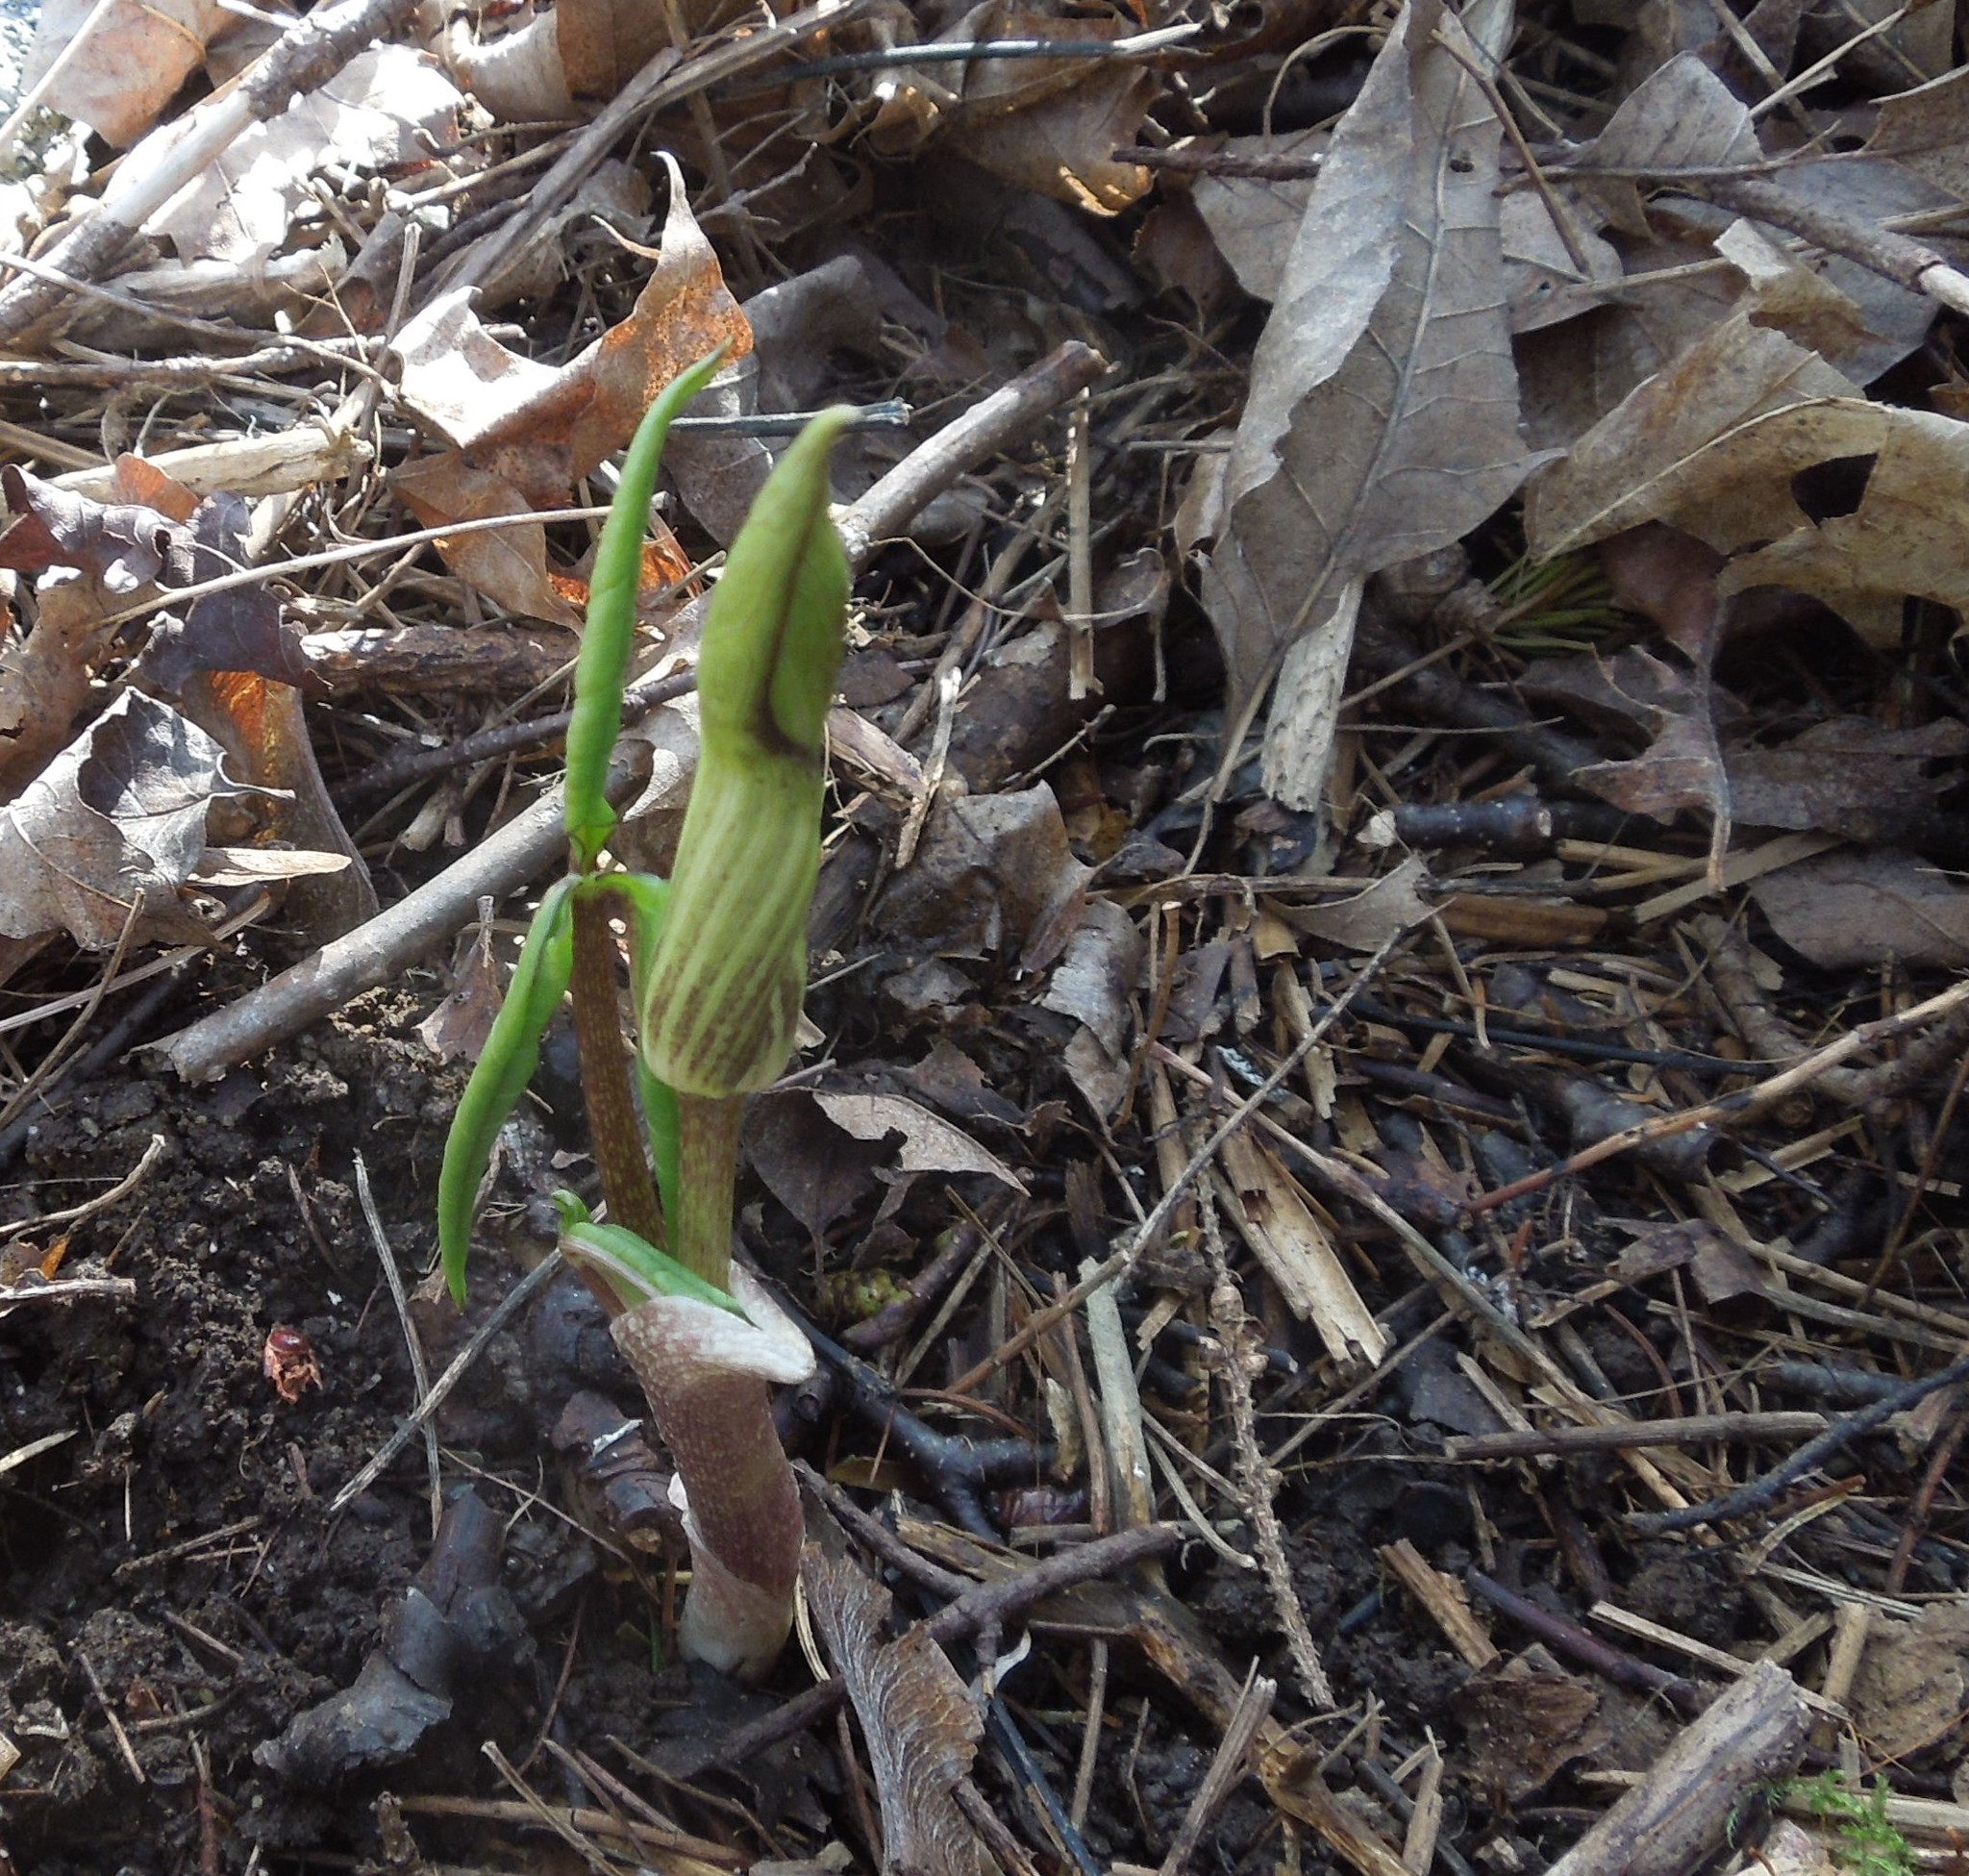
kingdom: Plantae
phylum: Tracheophyta
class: Liliopsida
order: Alismatales
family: Araceae
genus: Arisaema
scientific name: Arisaema triphyllum
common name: Jack-in-the-pulpit
